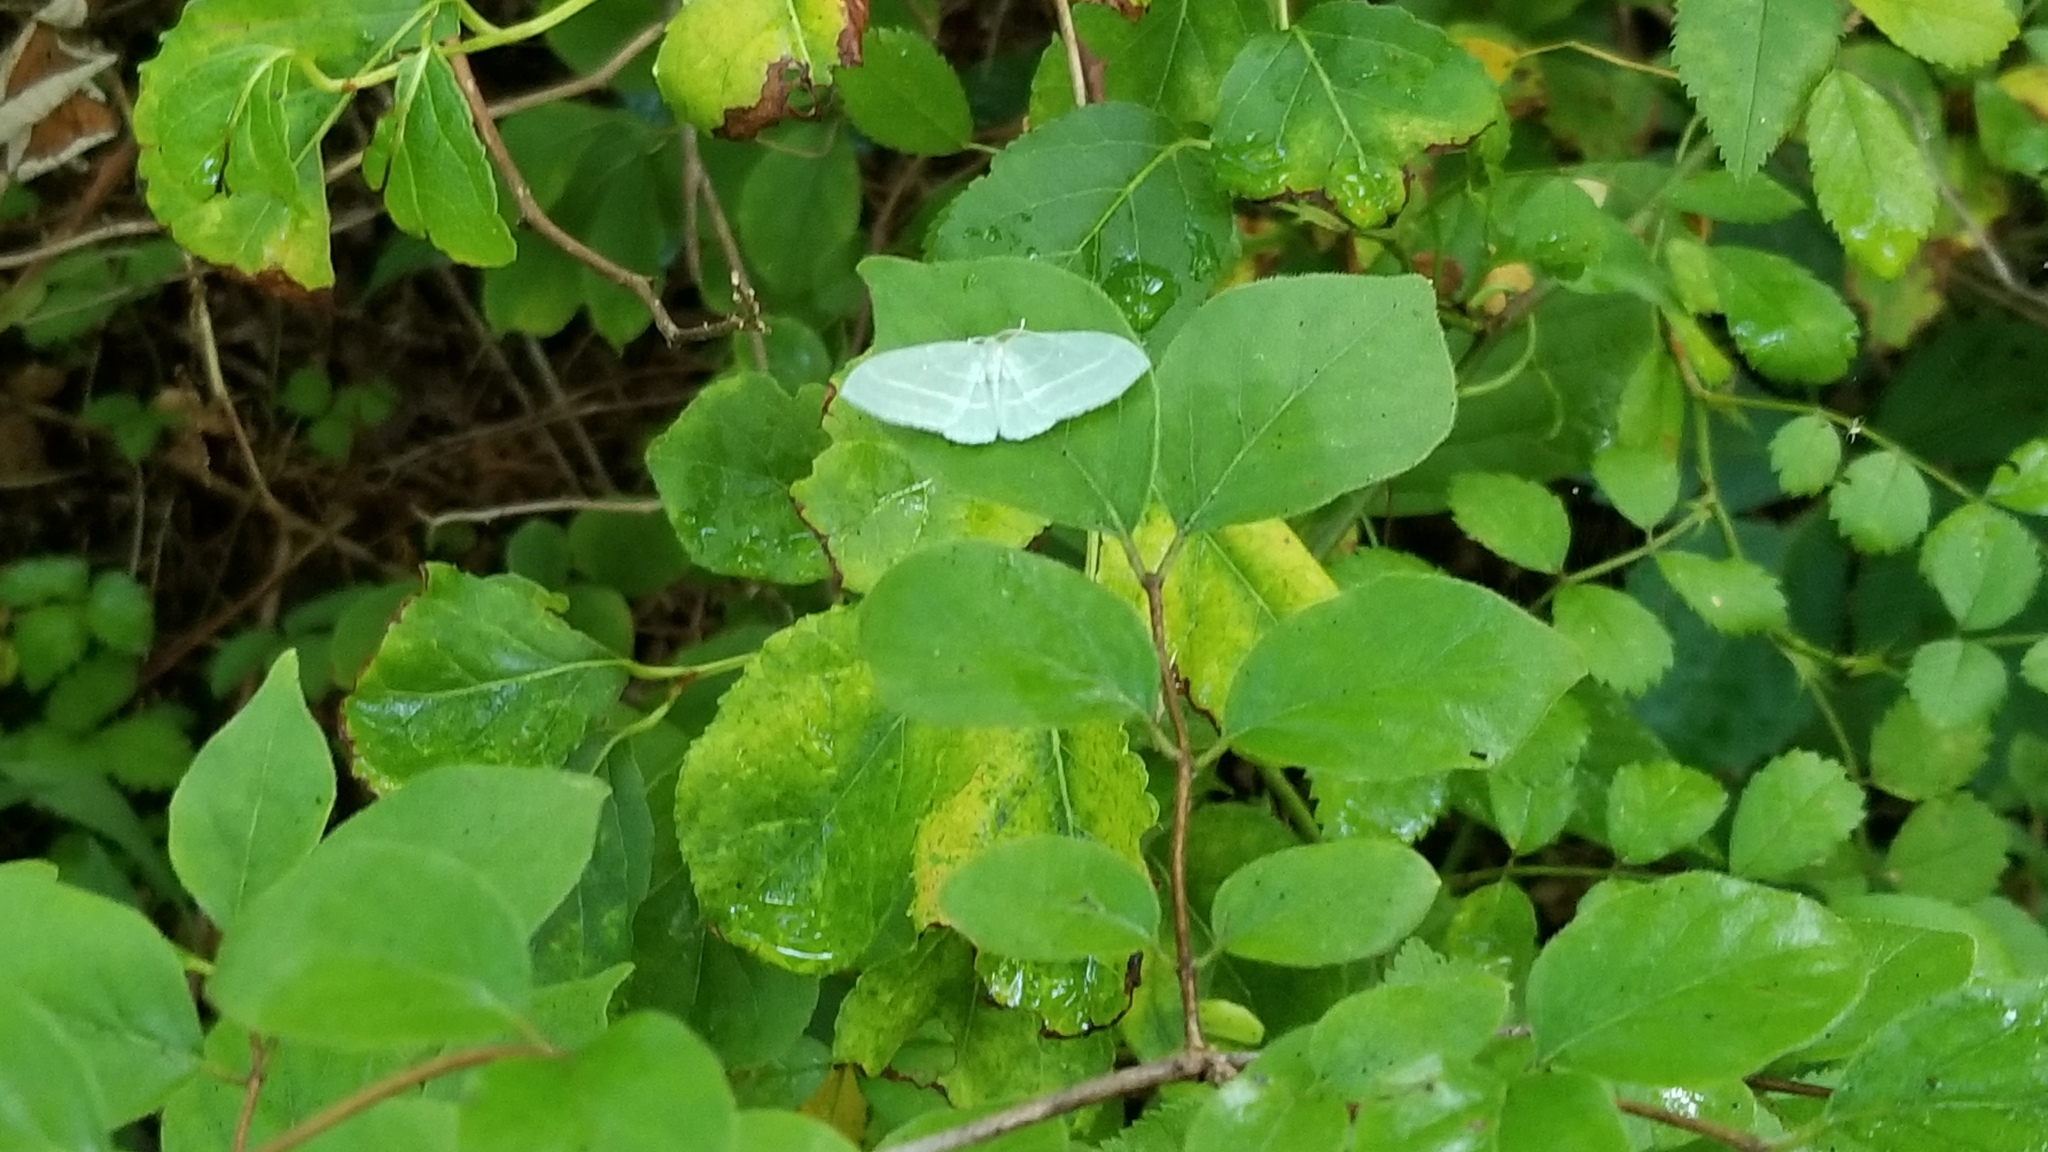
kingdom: Animalia
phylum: Arthropoda
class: Insecta
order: Lepidoptera
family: Geometridae
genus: Dyspteris
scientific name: Dyspteris abortivaria
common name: Bad-wing
